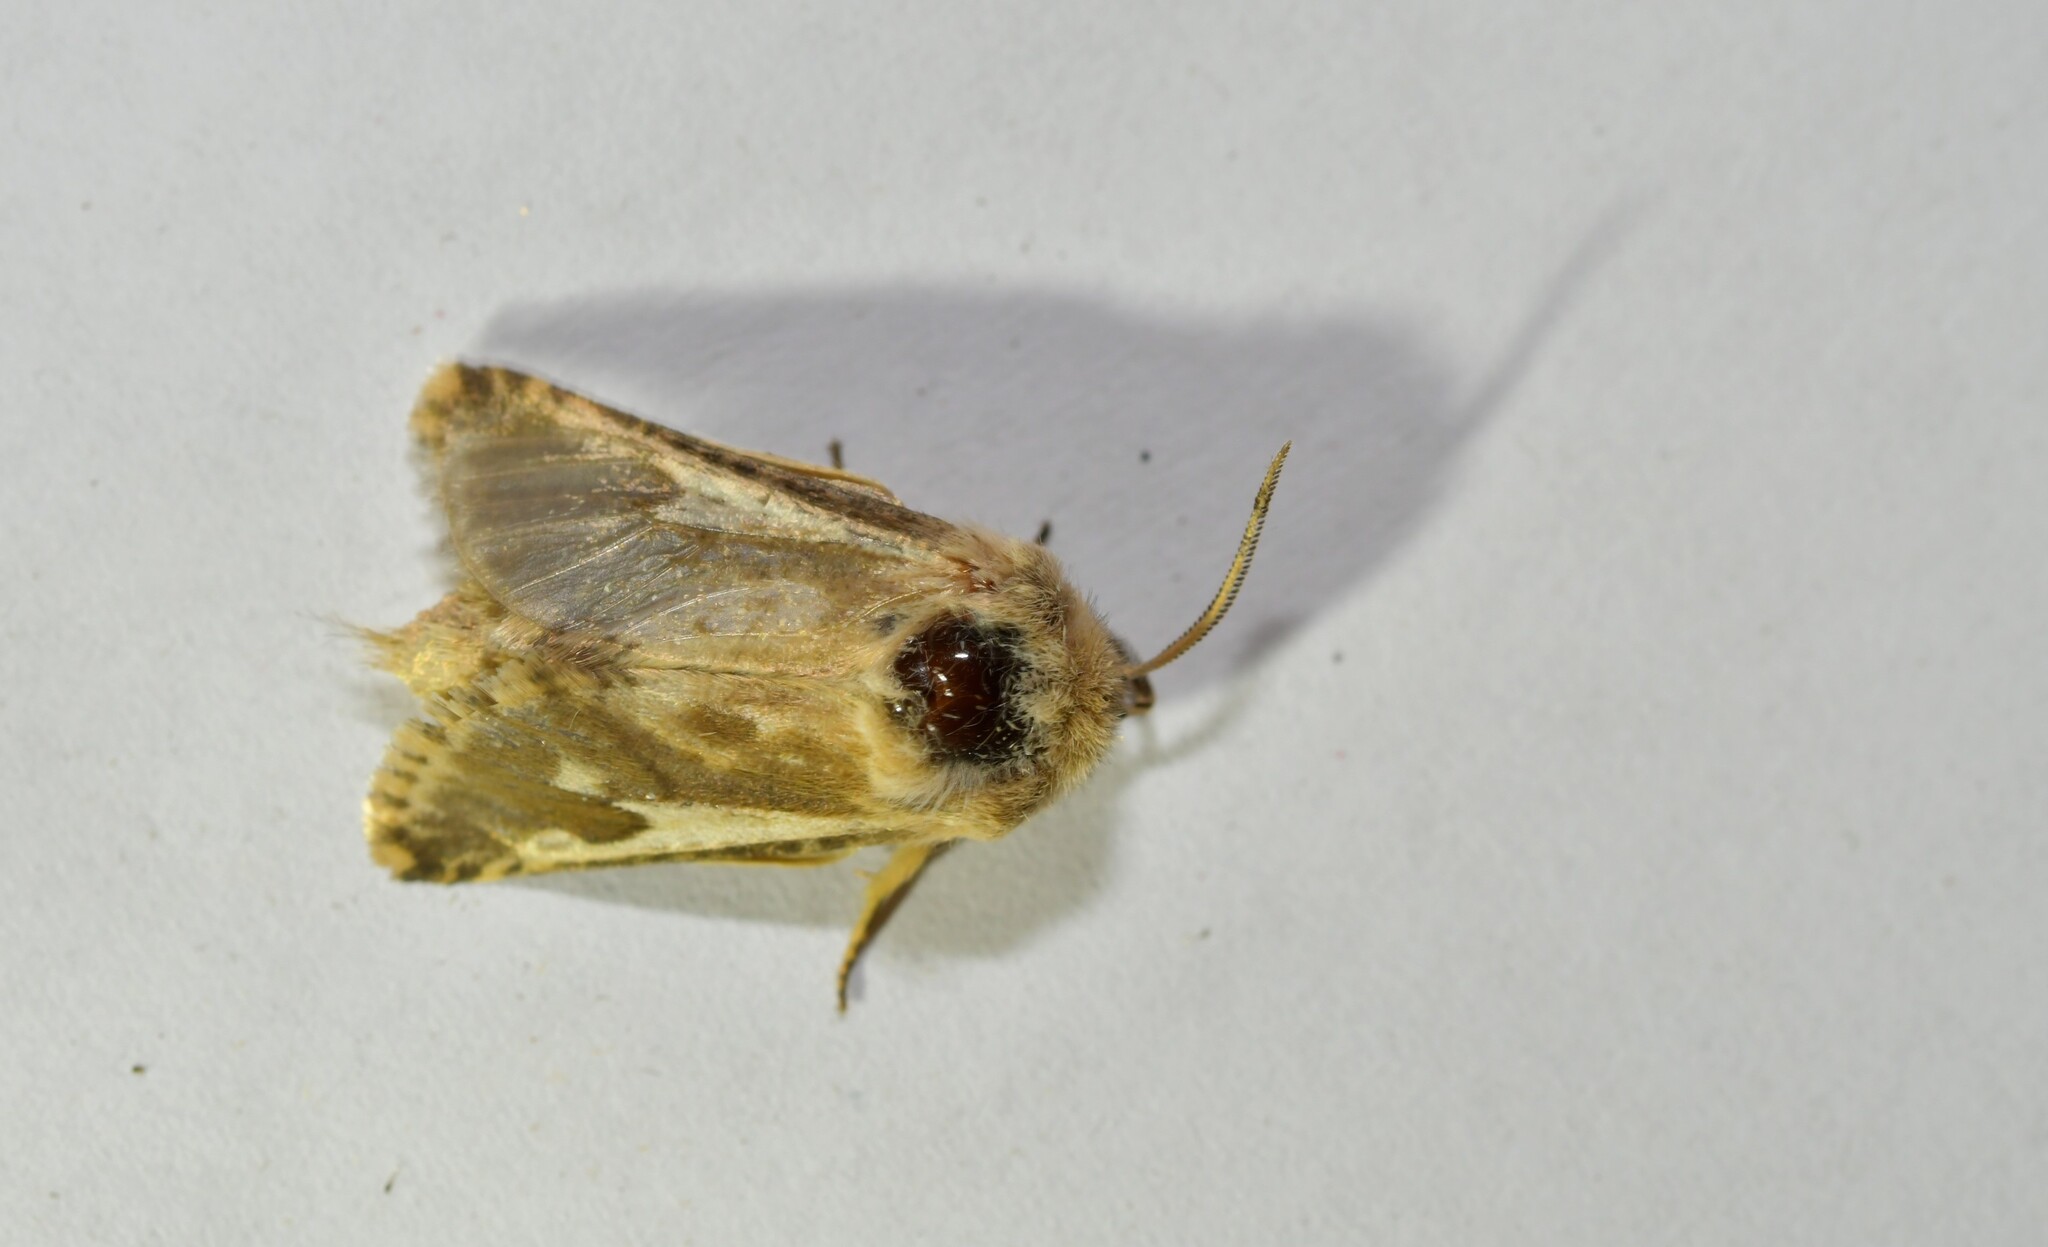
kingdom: Animalia
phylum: Arthropoda
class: Insecta
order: Lepidoptera
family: Cossidae
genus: Dyspessa
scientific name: Dyspessa ulula
